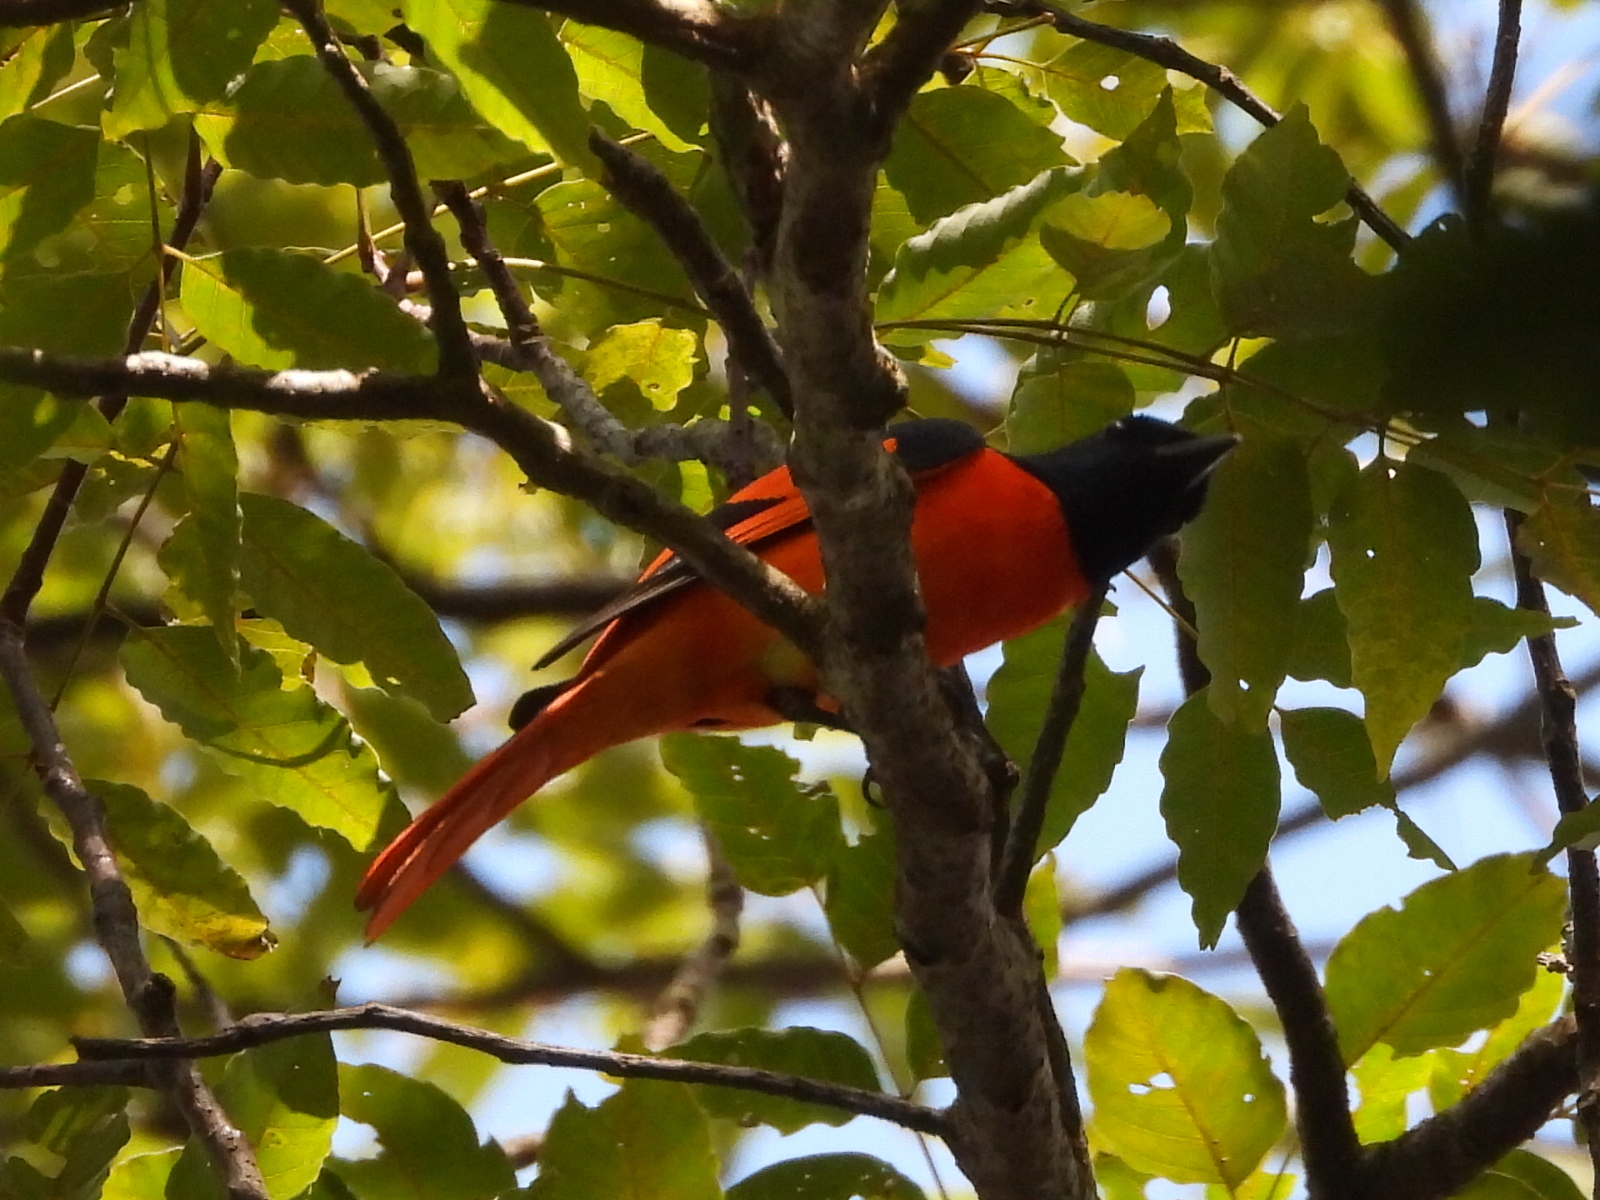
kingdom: Animalia
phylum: Chordata
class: Aves
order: Passeriformes
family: Campephagidae
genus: Pericrocotus
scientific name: Pericrocotus speciosus
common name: Scarlet minivet
